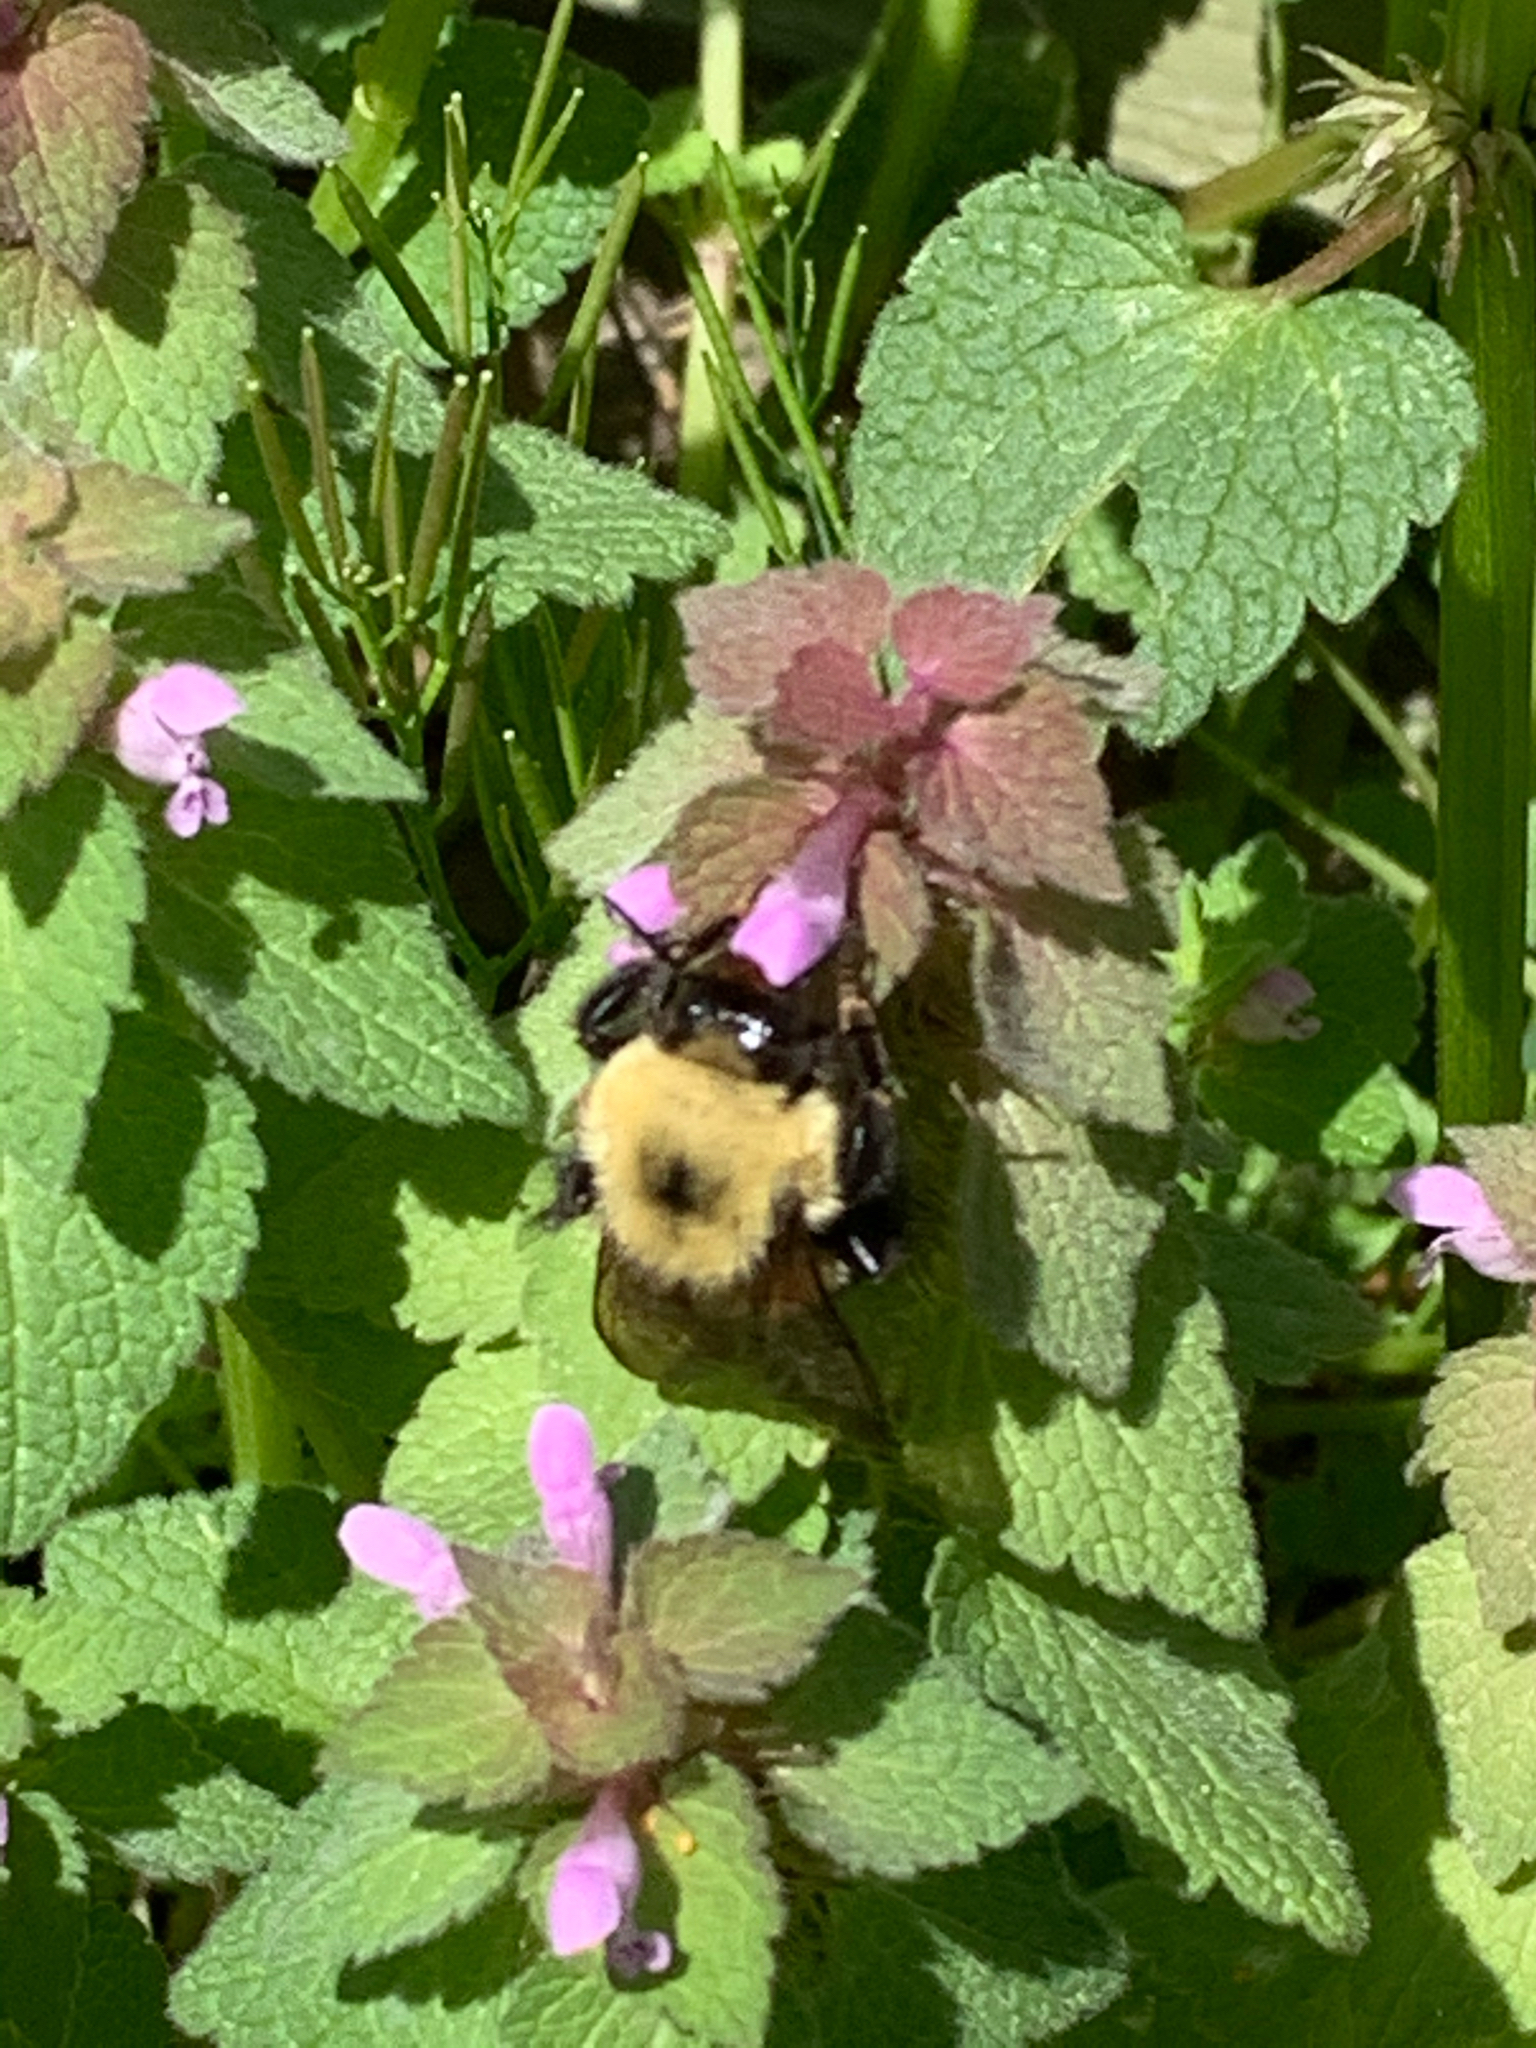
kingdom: Animalia
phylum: Arthropoda
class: Insecta
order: Hymenoptera
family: Apidae
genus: Bombus
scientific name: Bombus bimaculatus
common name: Two-spotted bumble bee
